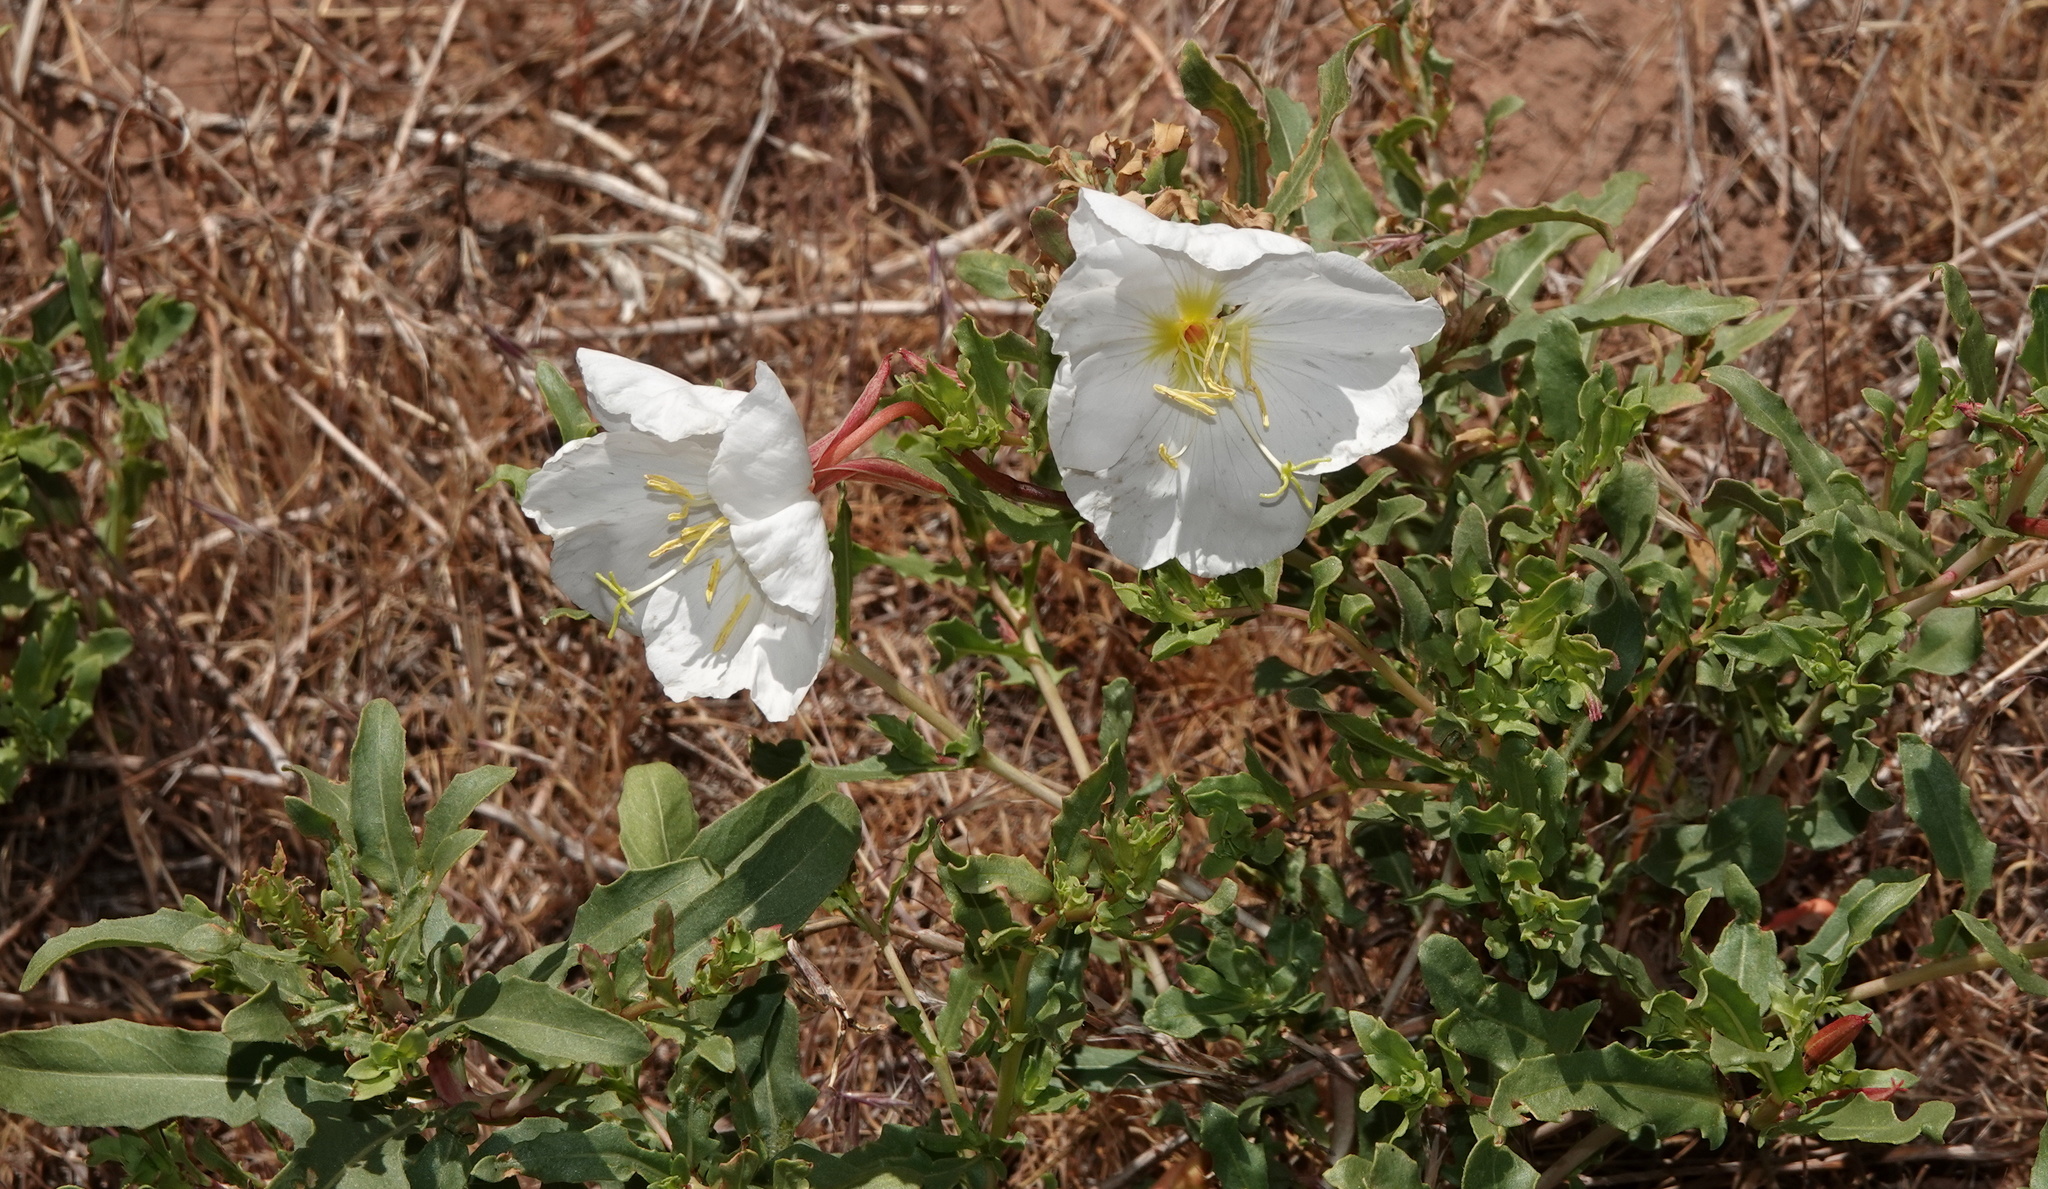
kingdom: Plantae
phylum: Tracheophyta
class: Magnoliopsida
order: Myrtales
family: Onagraceae
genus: Oenothera
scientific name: Oenothera pallida
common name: Pale evening-primrose
